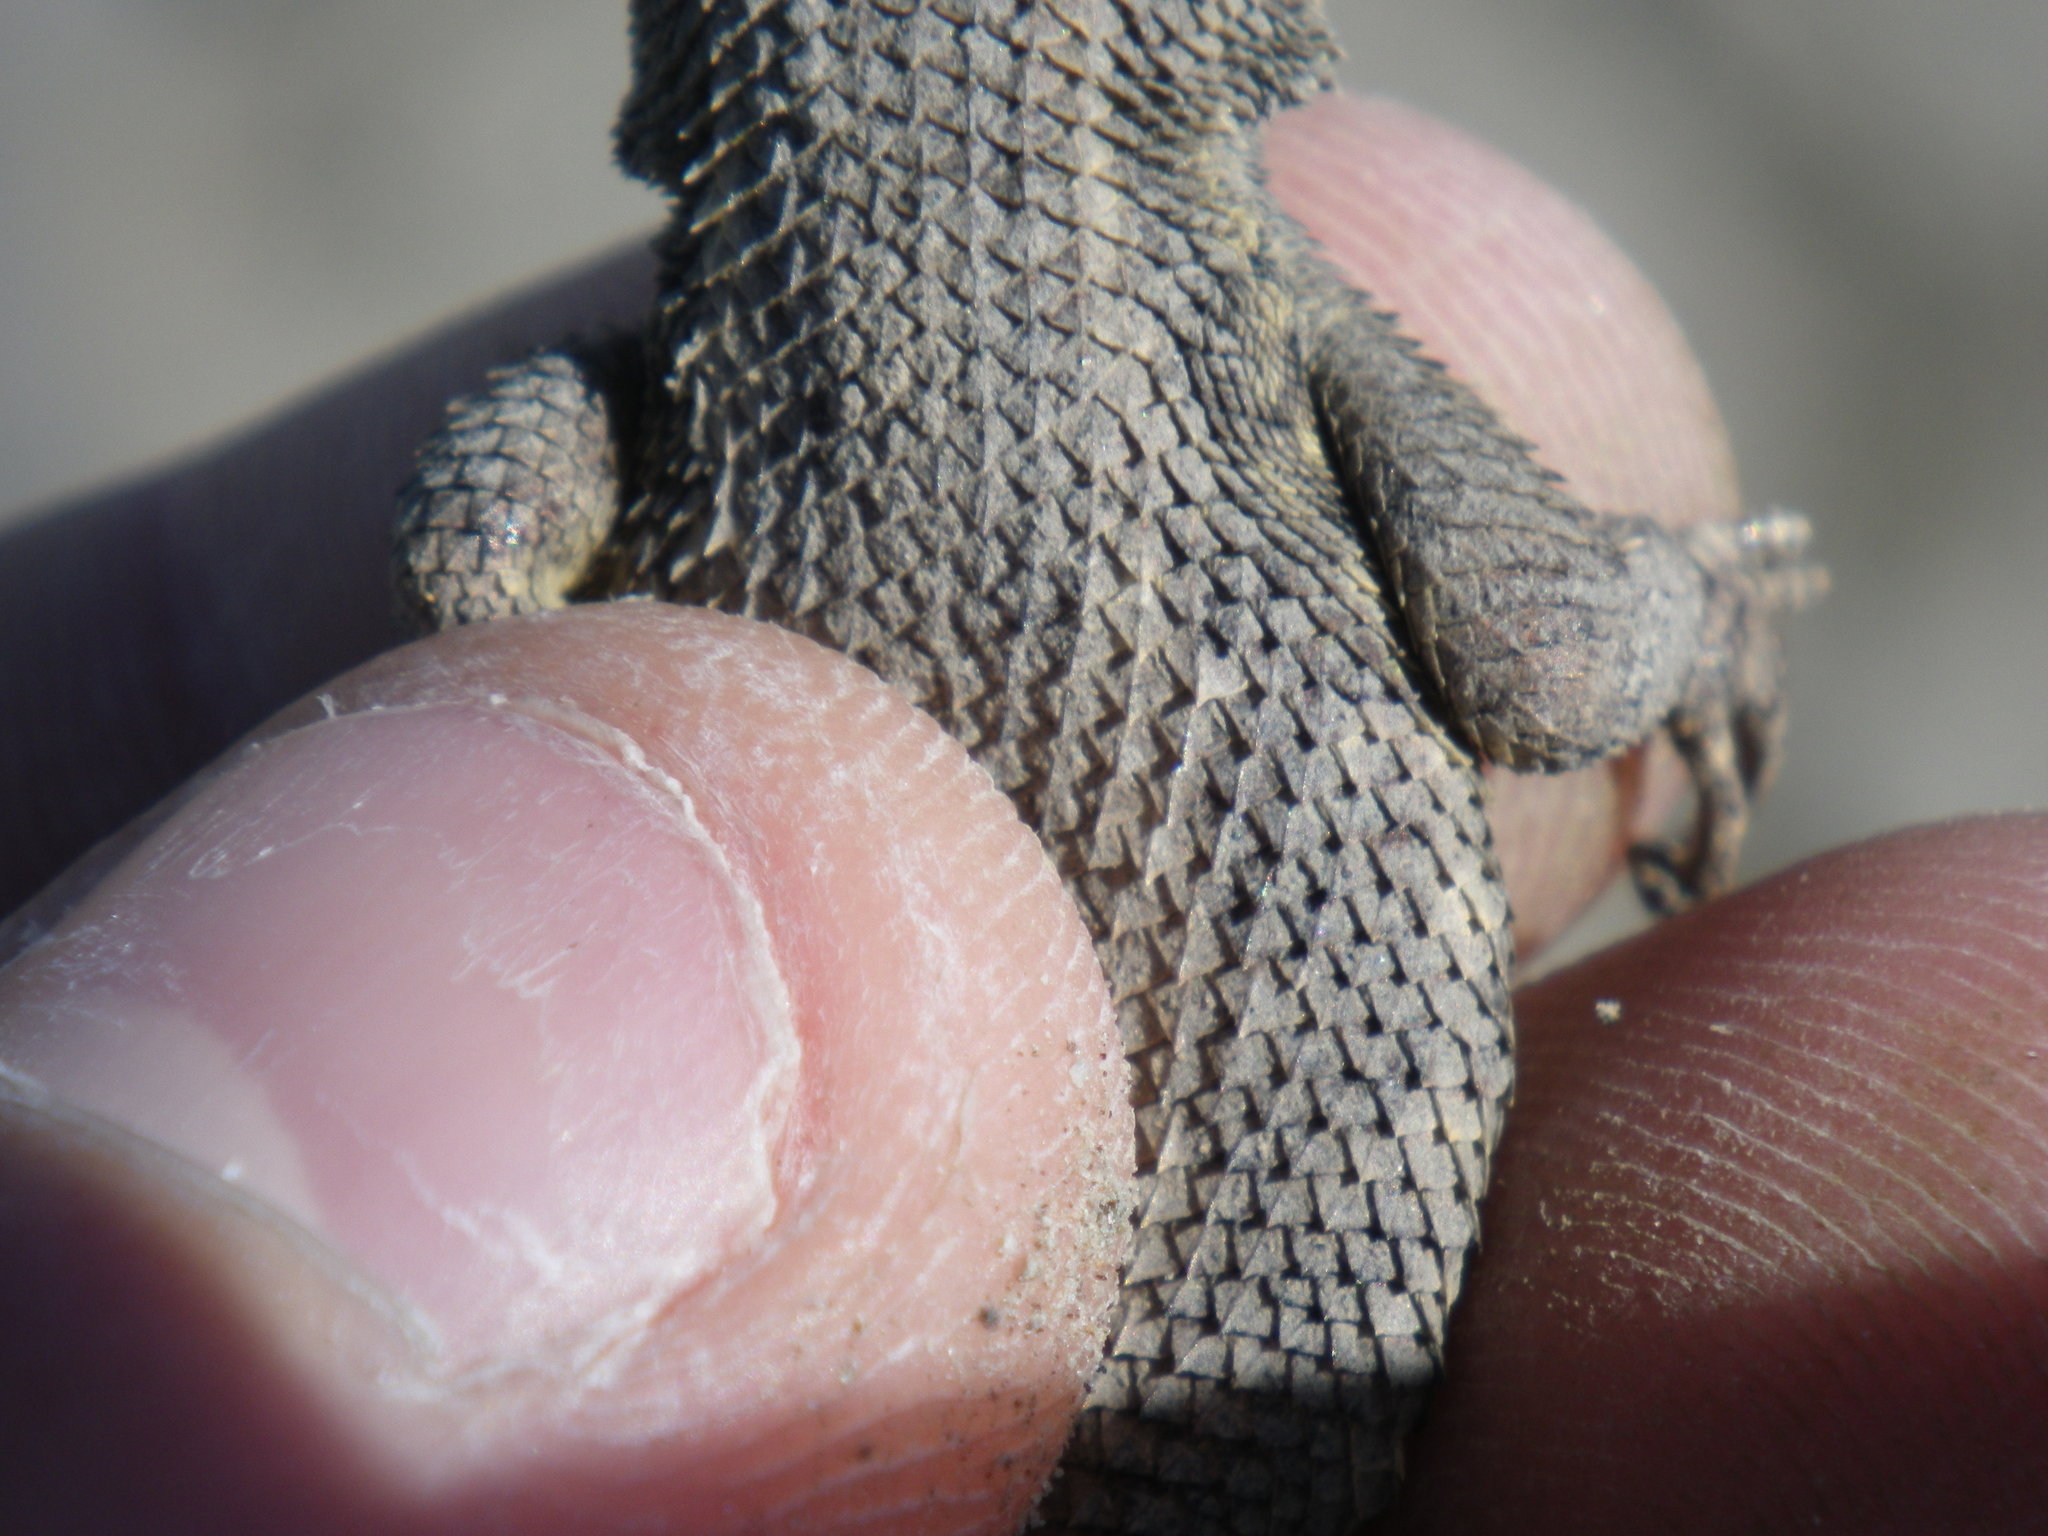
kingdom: Animalia
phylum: Chordata
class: Squamata
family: Phrynosomatidae
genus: Sceloporus
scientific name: Sceloporus occidentalis
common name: Western fence lizard
